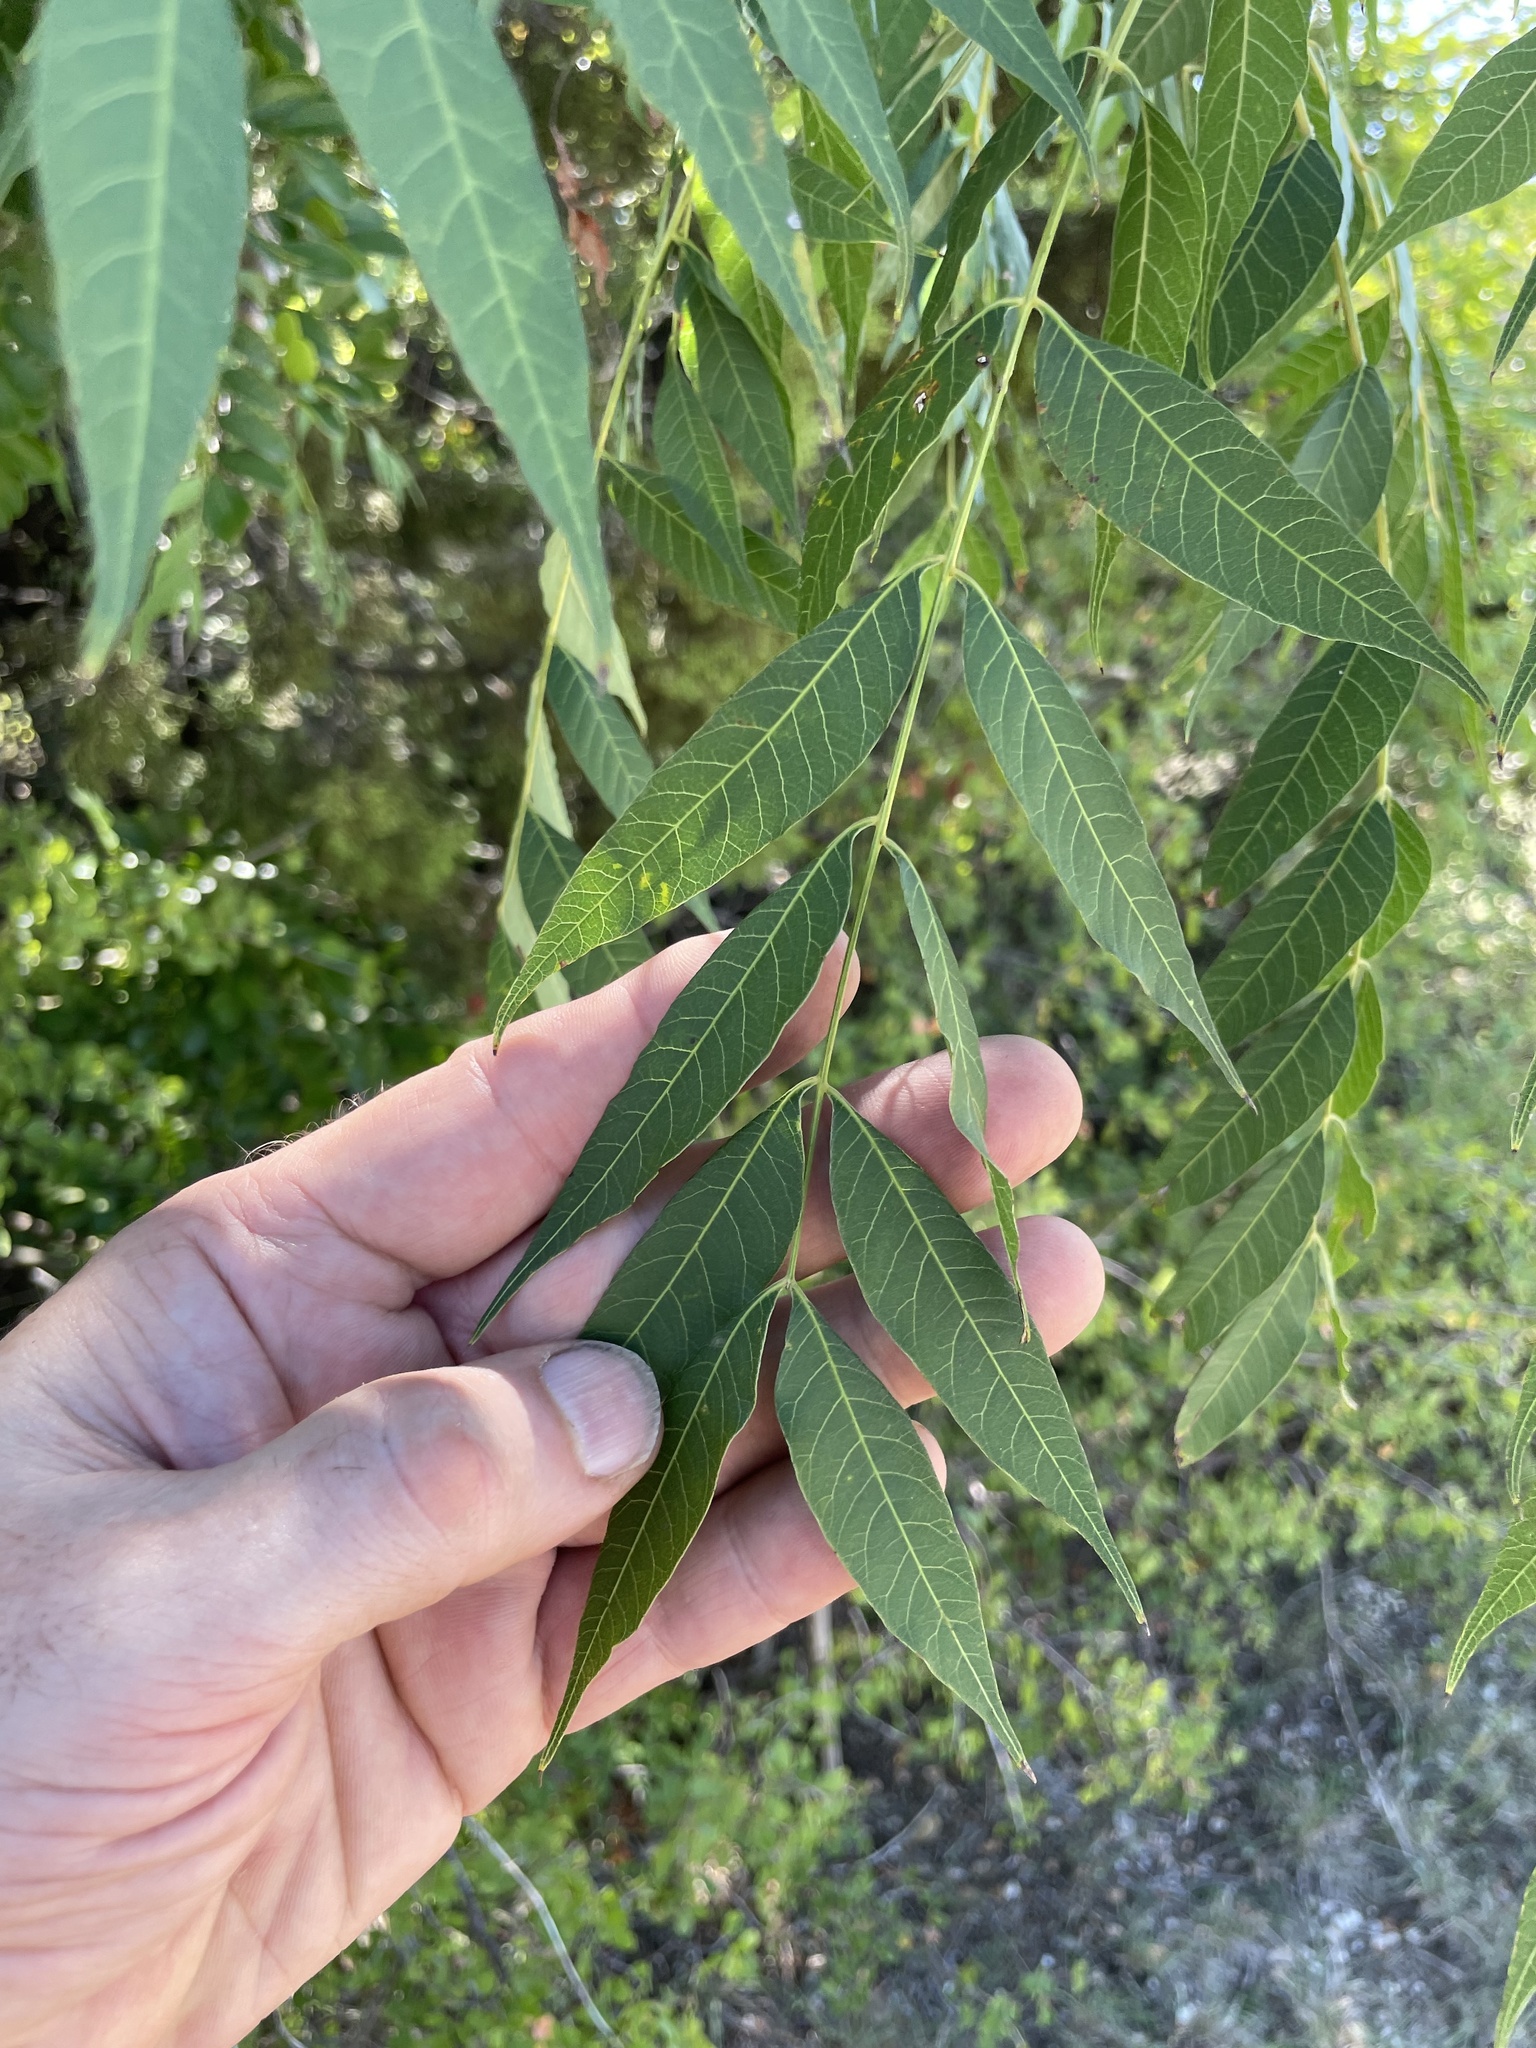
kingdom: Plantae
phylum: Tracheophyta
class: Magnoliopsida
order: Sapindales
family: Anacardiaceae
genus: Pistacia
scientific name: Pistacia chinensis
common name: Chinese pistache
